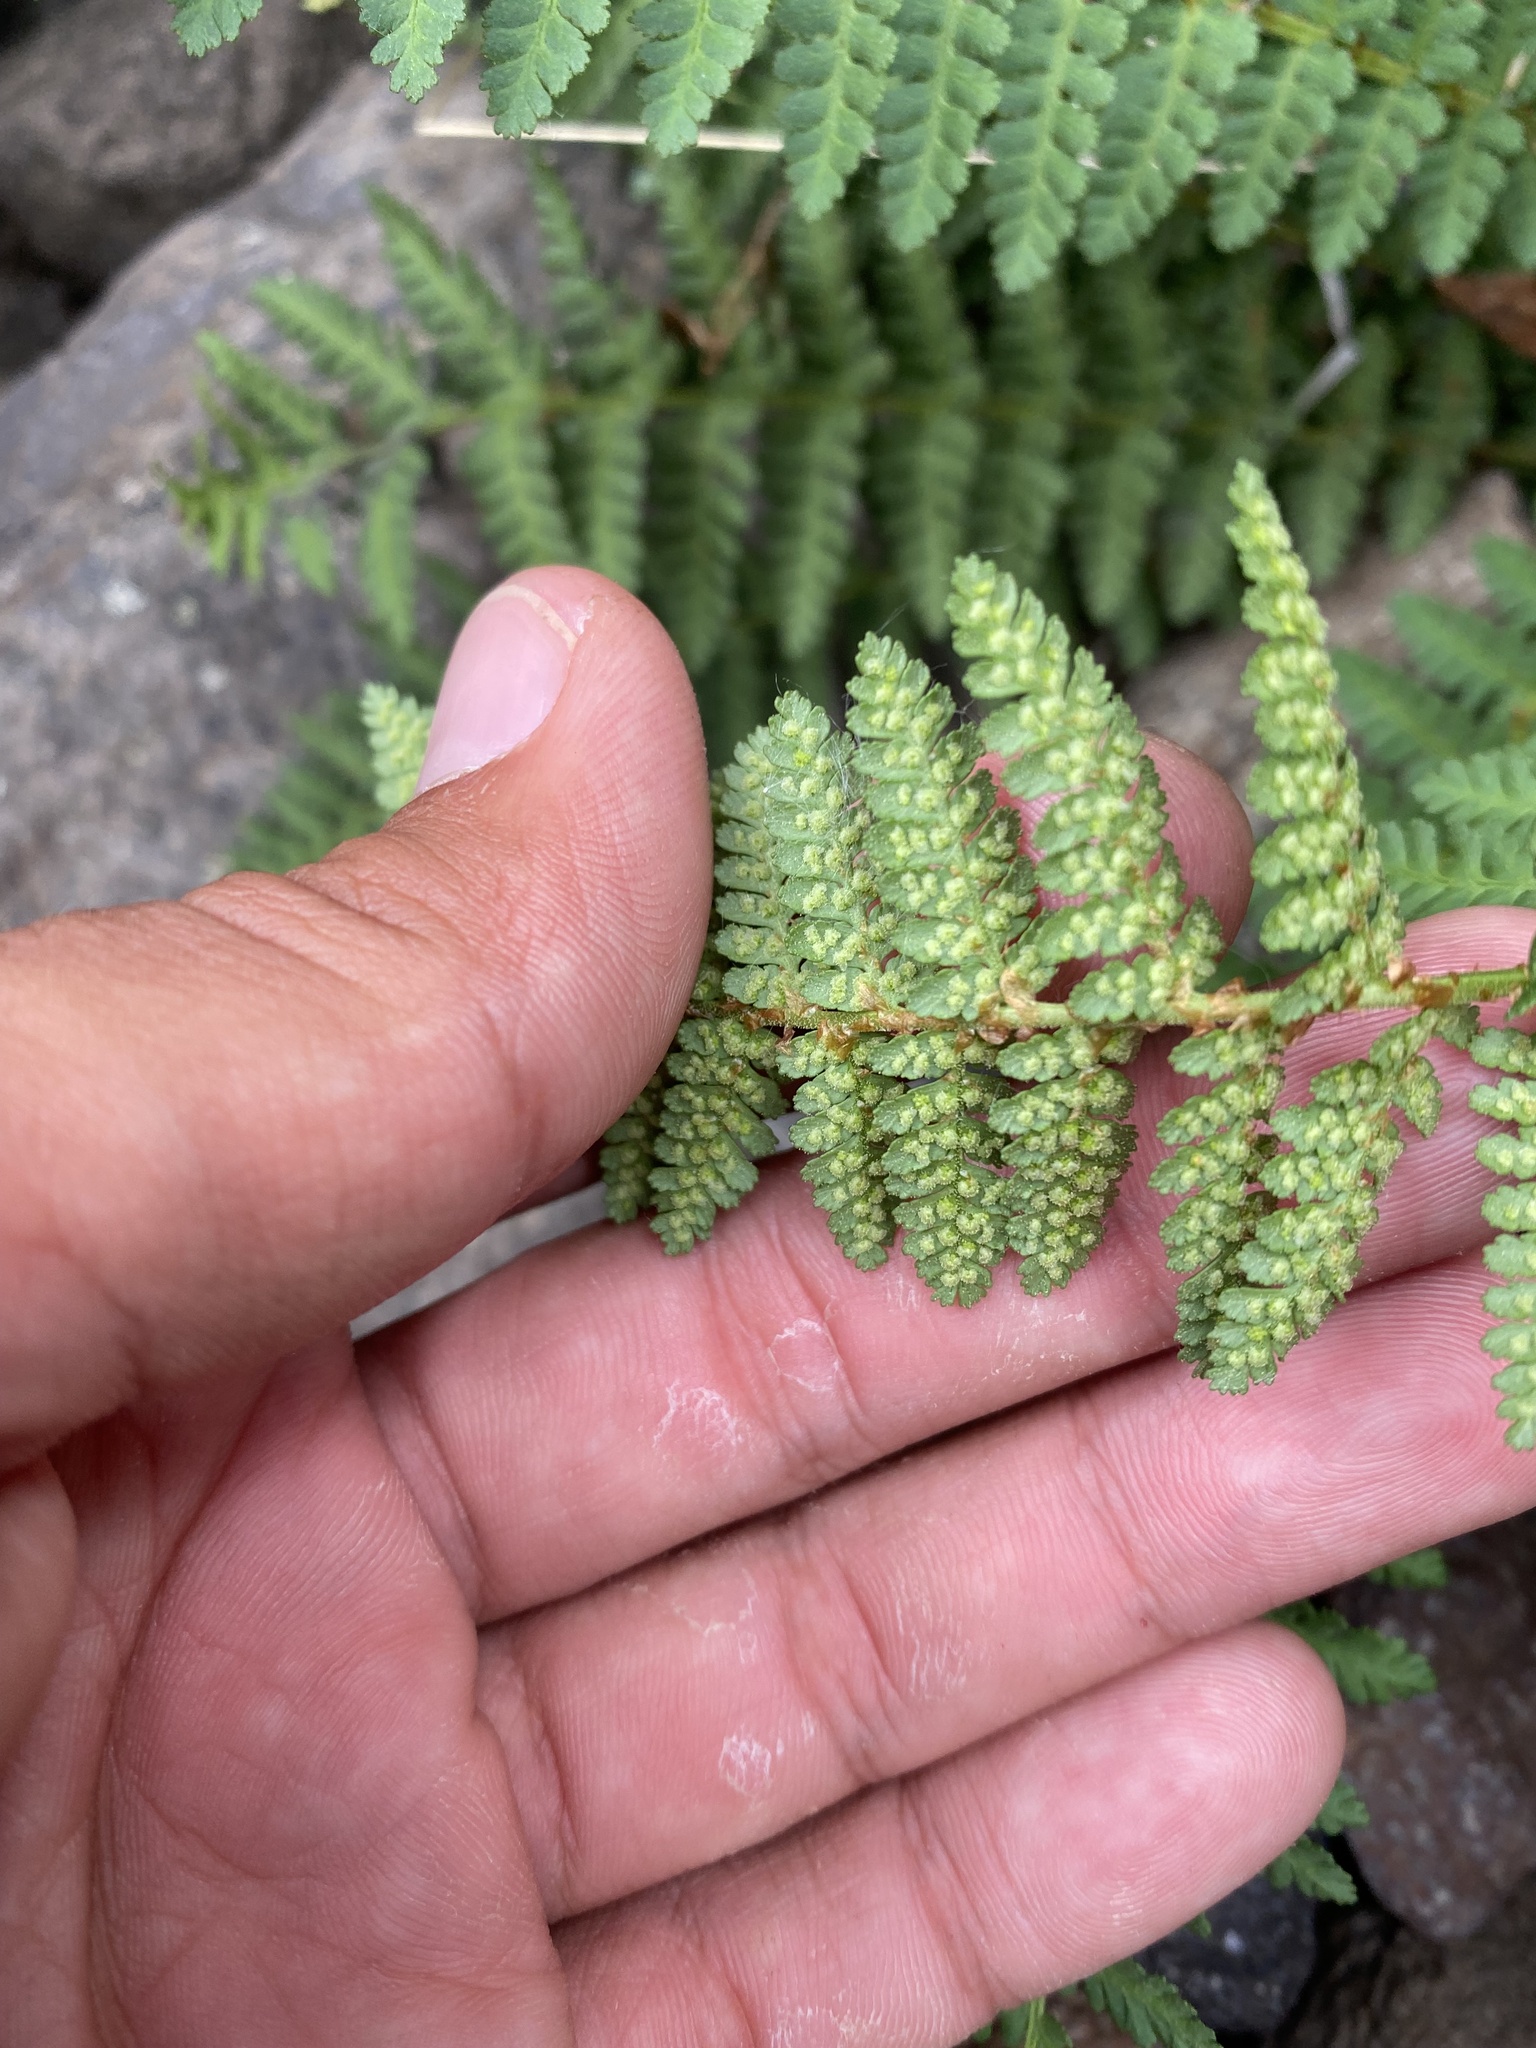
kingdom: Plantae
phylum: Tracheophyta
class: Polypodiopsida
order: Polypodiales
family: Dryopteridaceae
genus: Dryopteris
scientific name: Dryopteris fragrans
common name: Fragrant wood fern
